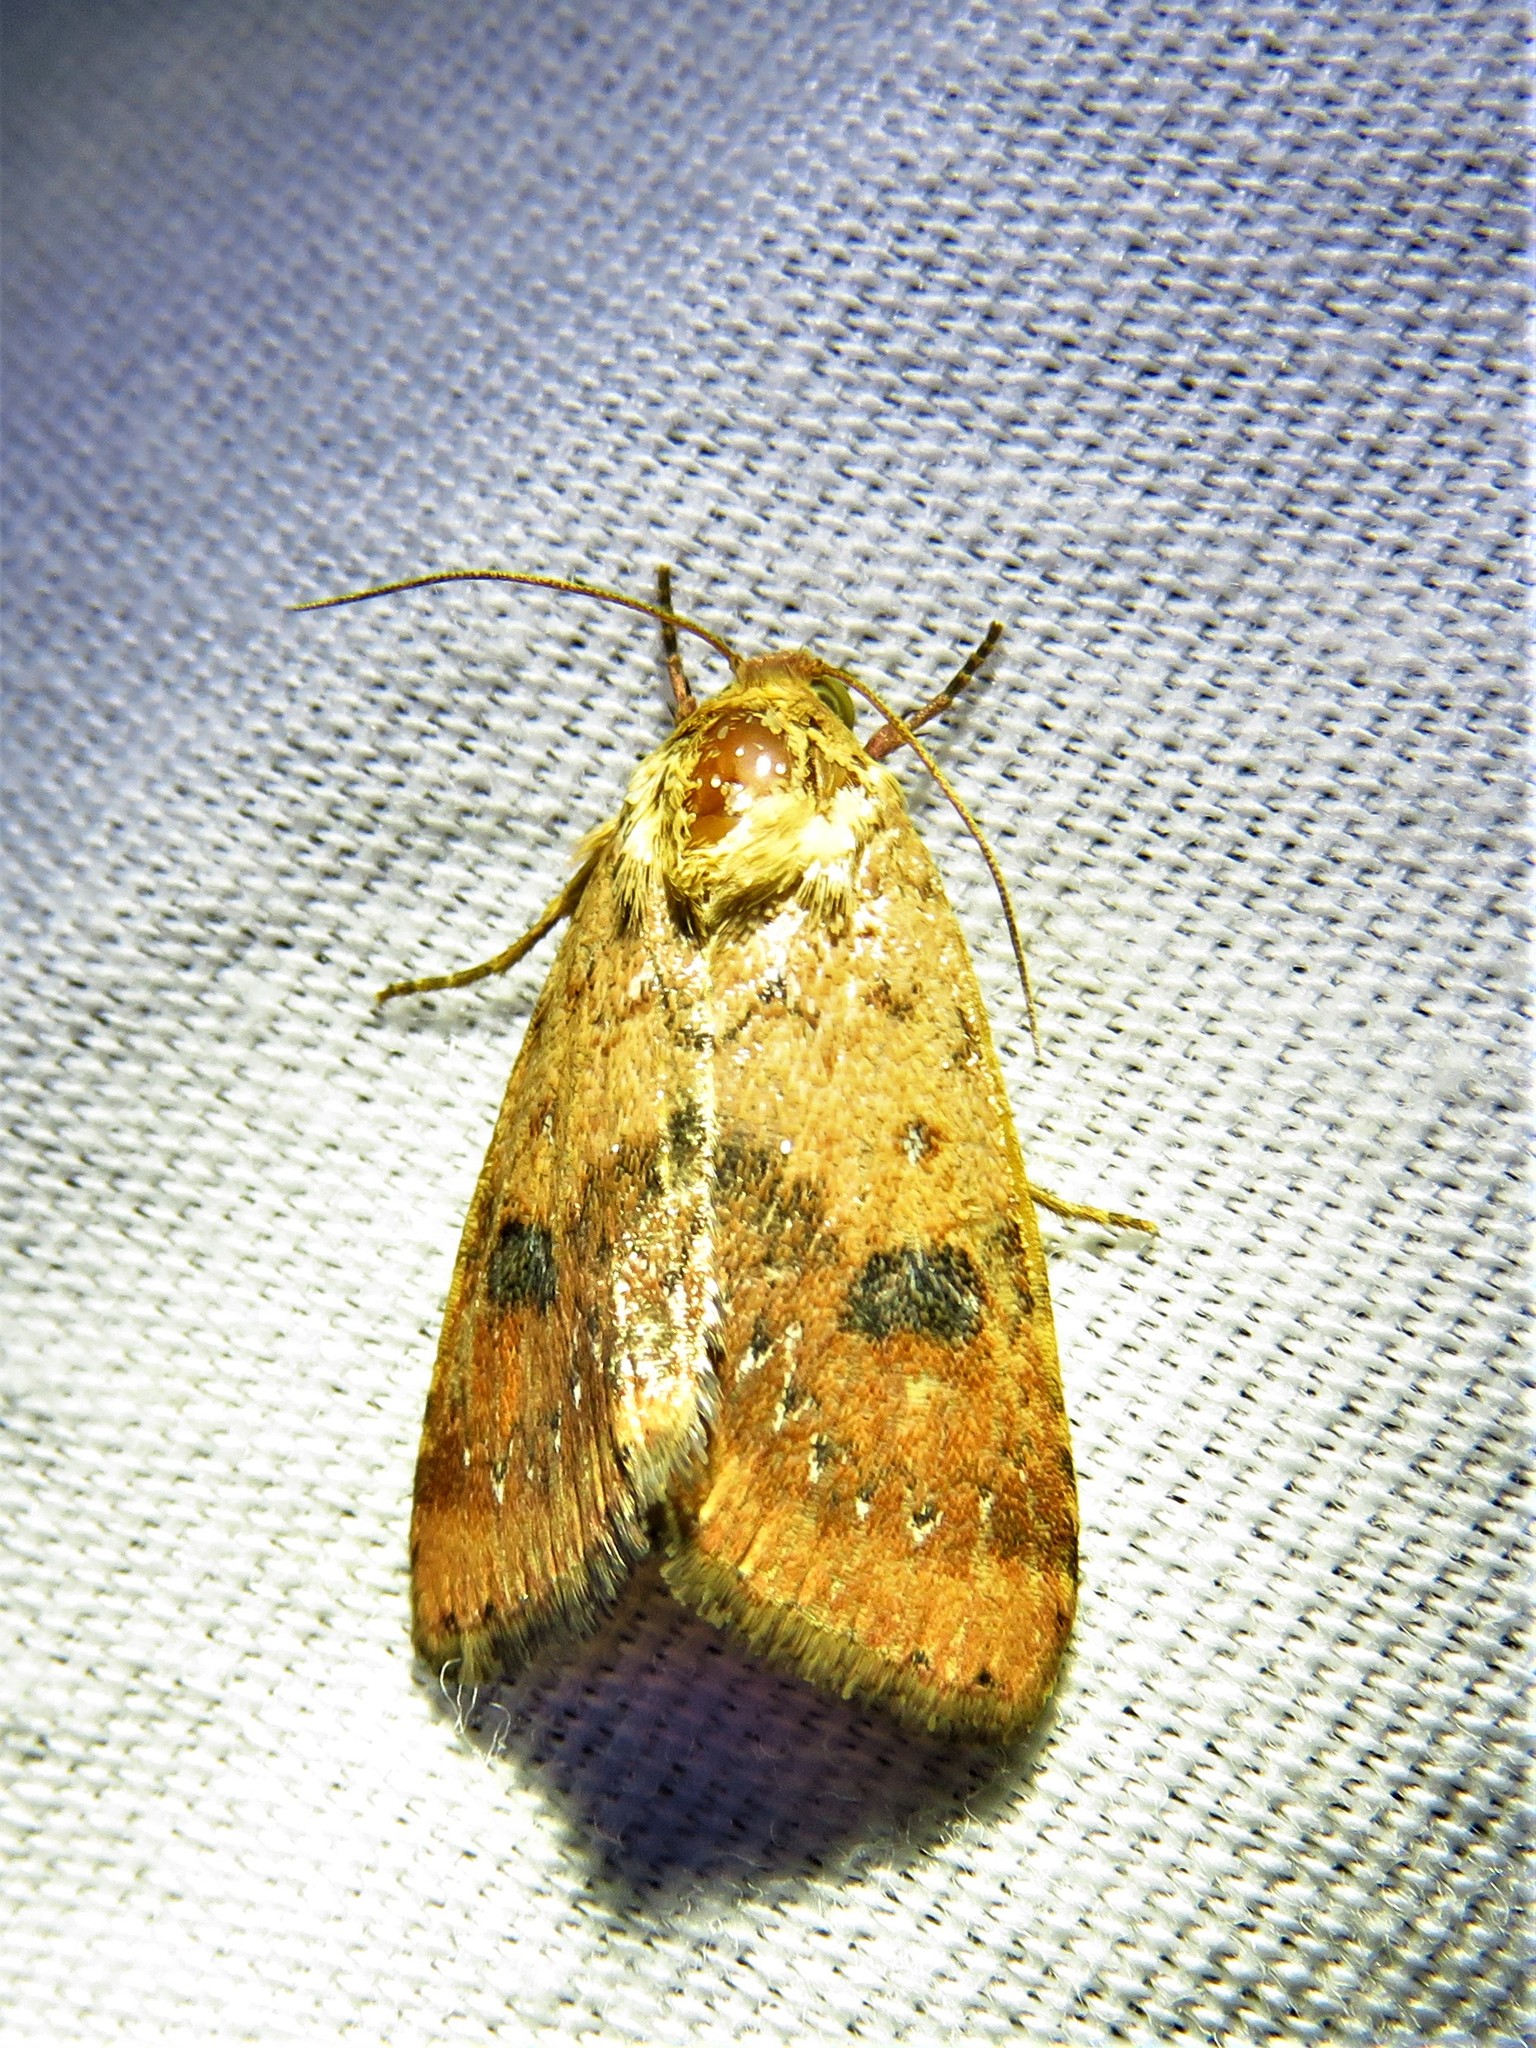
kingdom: Animalia
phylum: Arthropoda
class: Insecta
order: Lepidoptera
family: Noctuidae
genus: Heliocheilus
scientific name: Heliocheilus lupata
